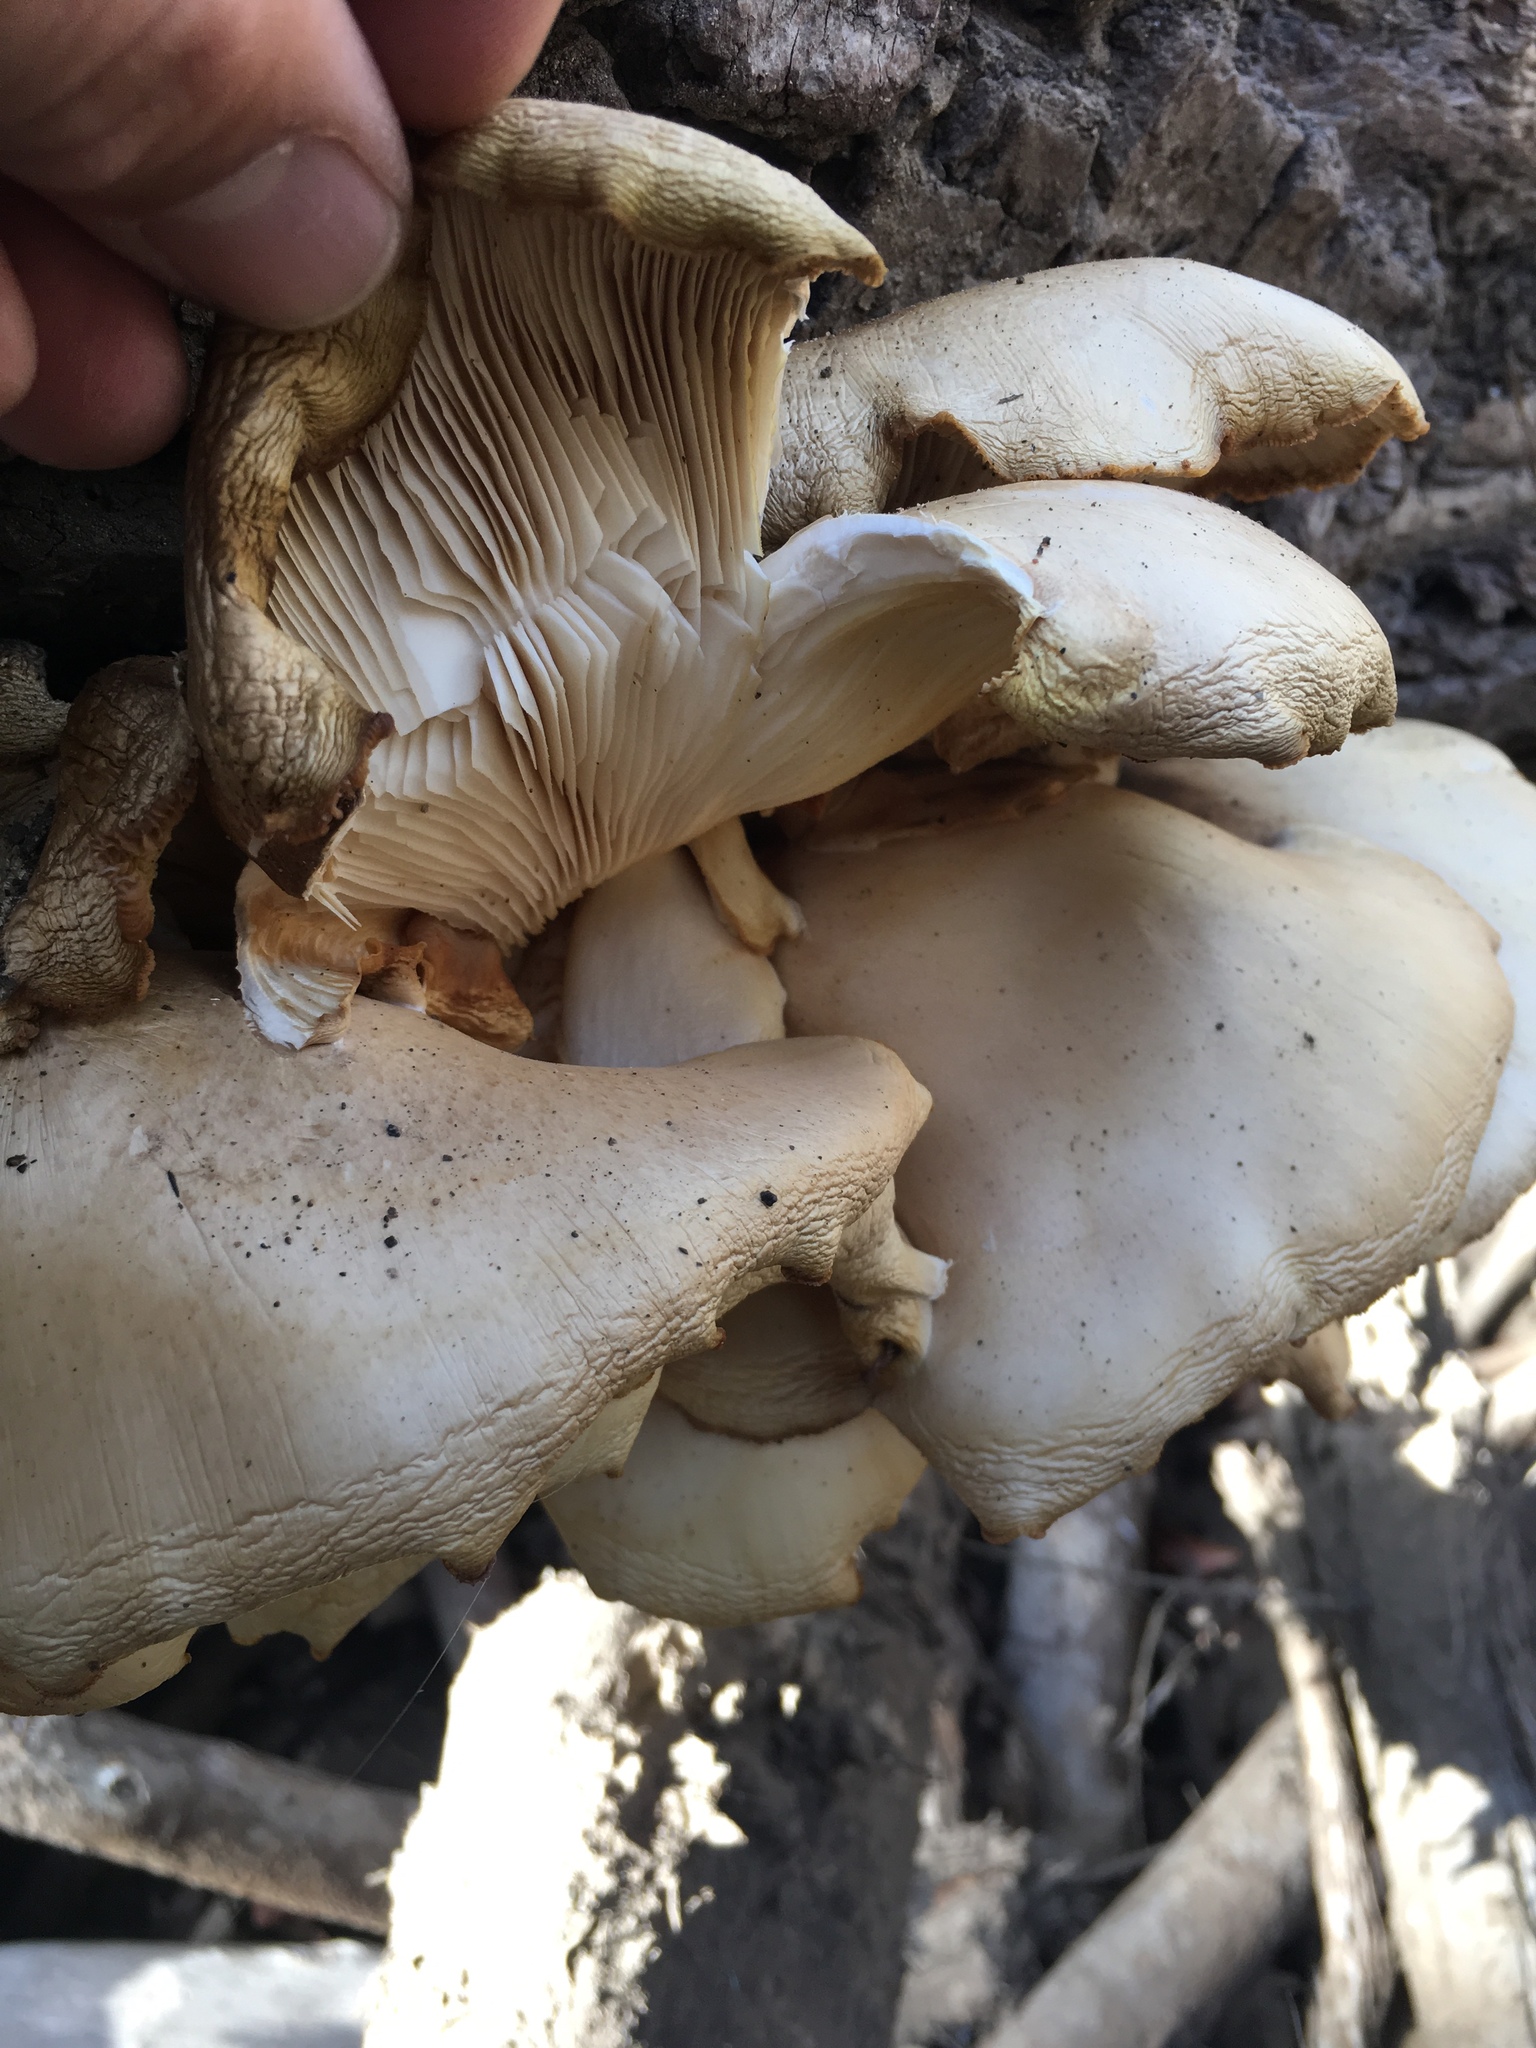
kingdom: Fungi
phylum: Basidiomycota
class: Agaricomycetes
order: Agaricales
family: Pleurotaceae
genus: Pleurotus
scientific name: Pleurotus ostreatus
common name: Oyster mushroom
